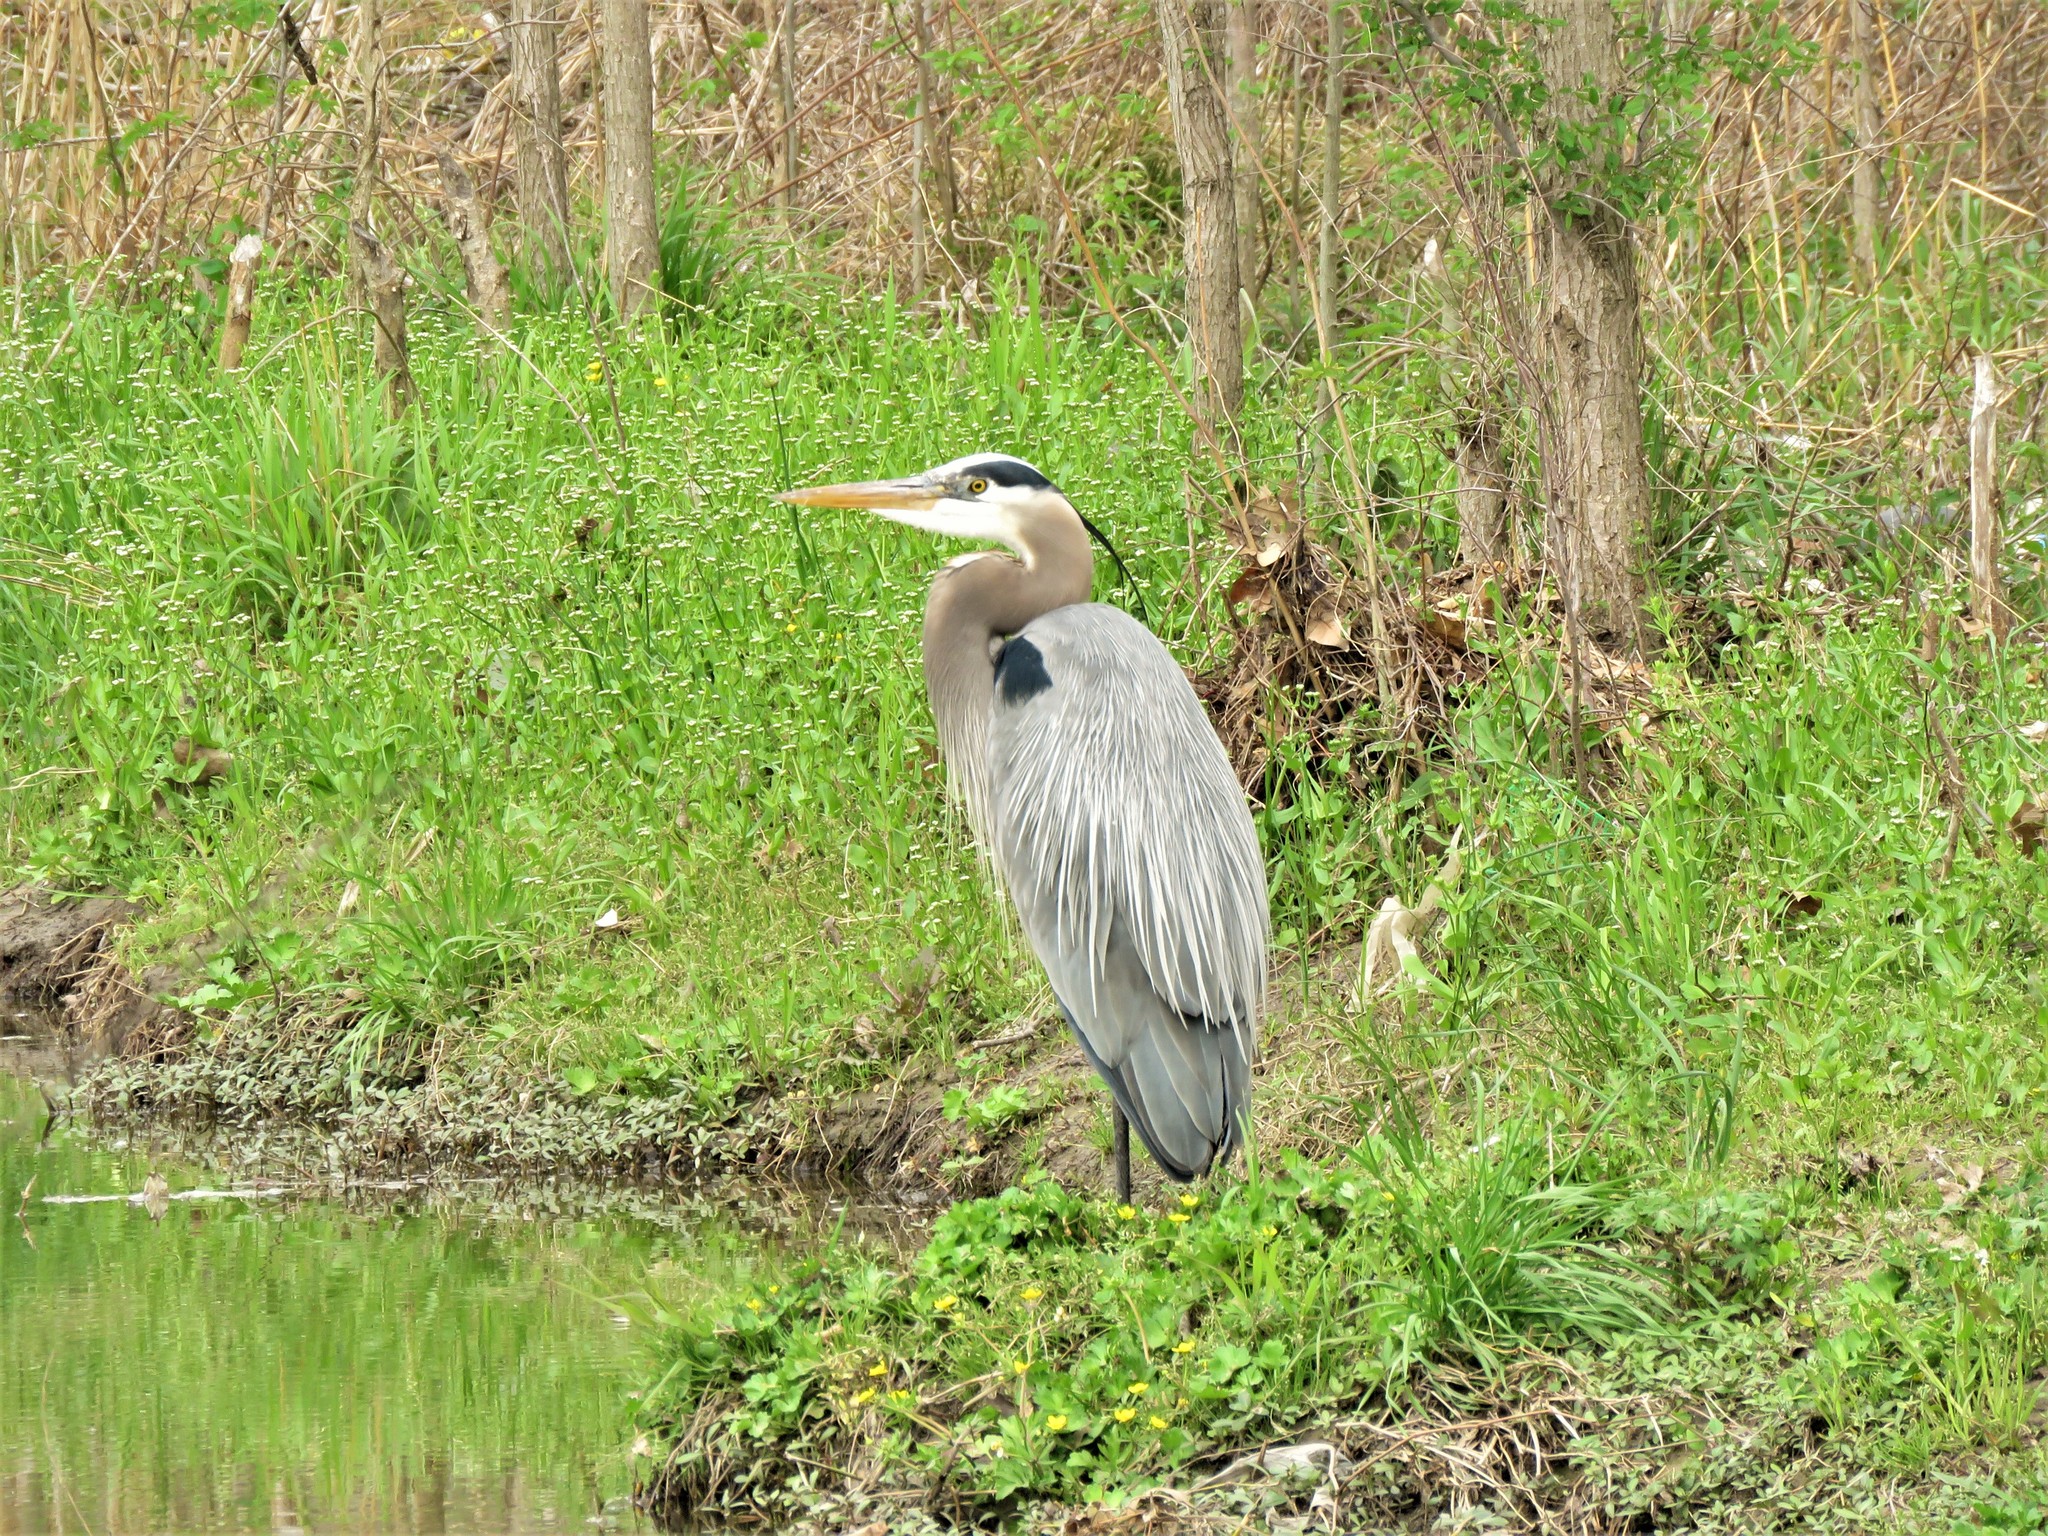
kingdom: Animalia
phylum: Chordata
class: Aves
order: Pelecaniformes
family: Ardeidae
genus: Ardea
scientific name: Ardea herodias
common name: Great blue heron
